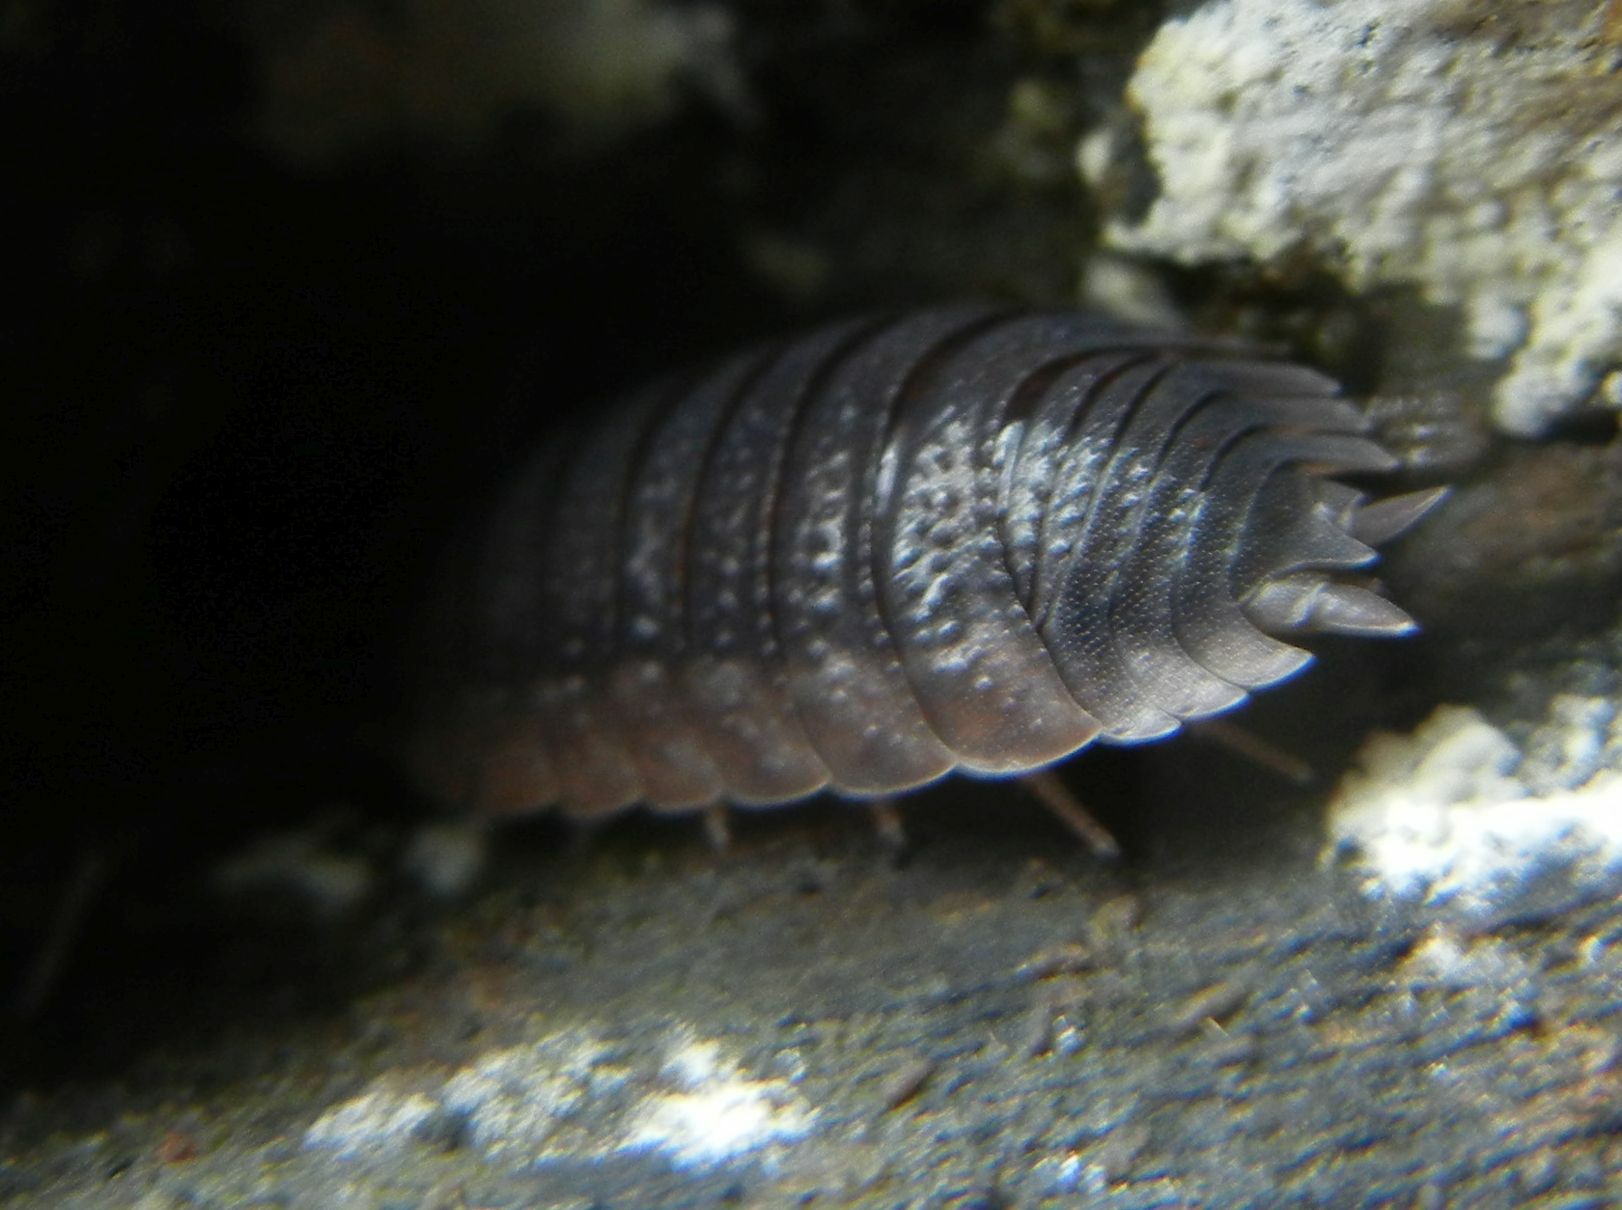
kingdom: Animalia
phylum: Arthropoda
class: Malacostraca
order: Isopoda
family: Porcellionidae
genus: Porcellio
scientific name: Porcellio scaber
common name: Common rough woodlouse
